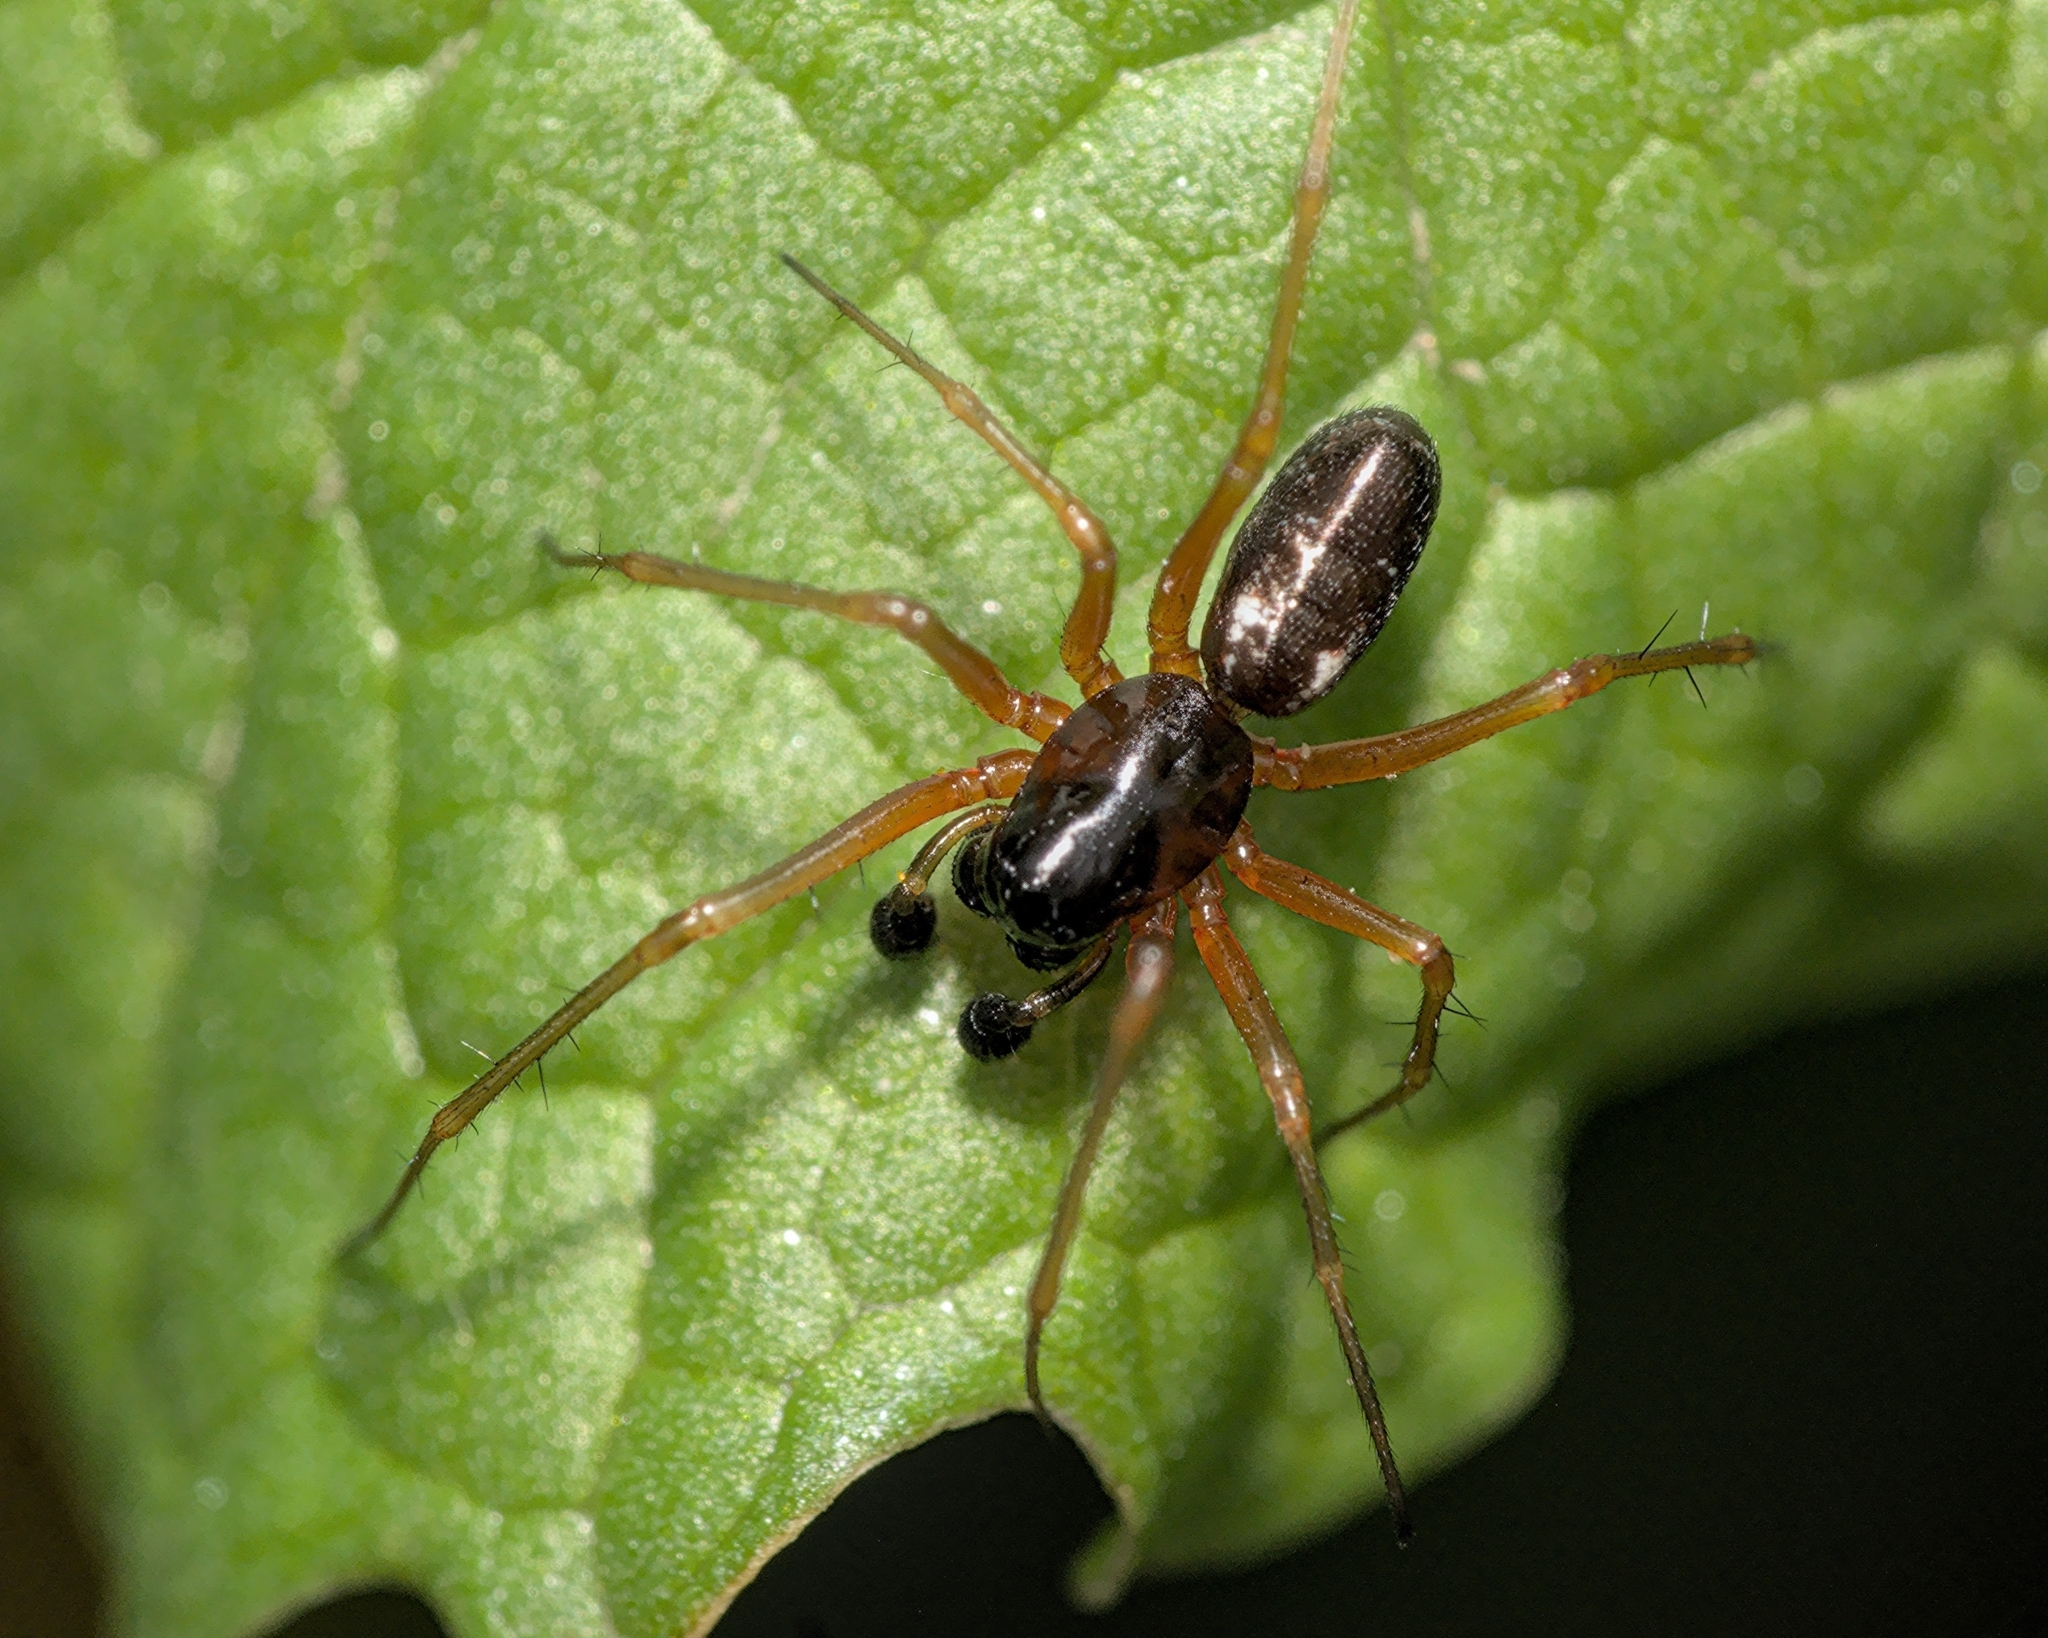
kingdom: Animalia
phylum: Arthropoda
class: Arachnida
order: Araneae
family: Linyphiidae
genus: Linyphia
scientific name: Linyphia hortensis
